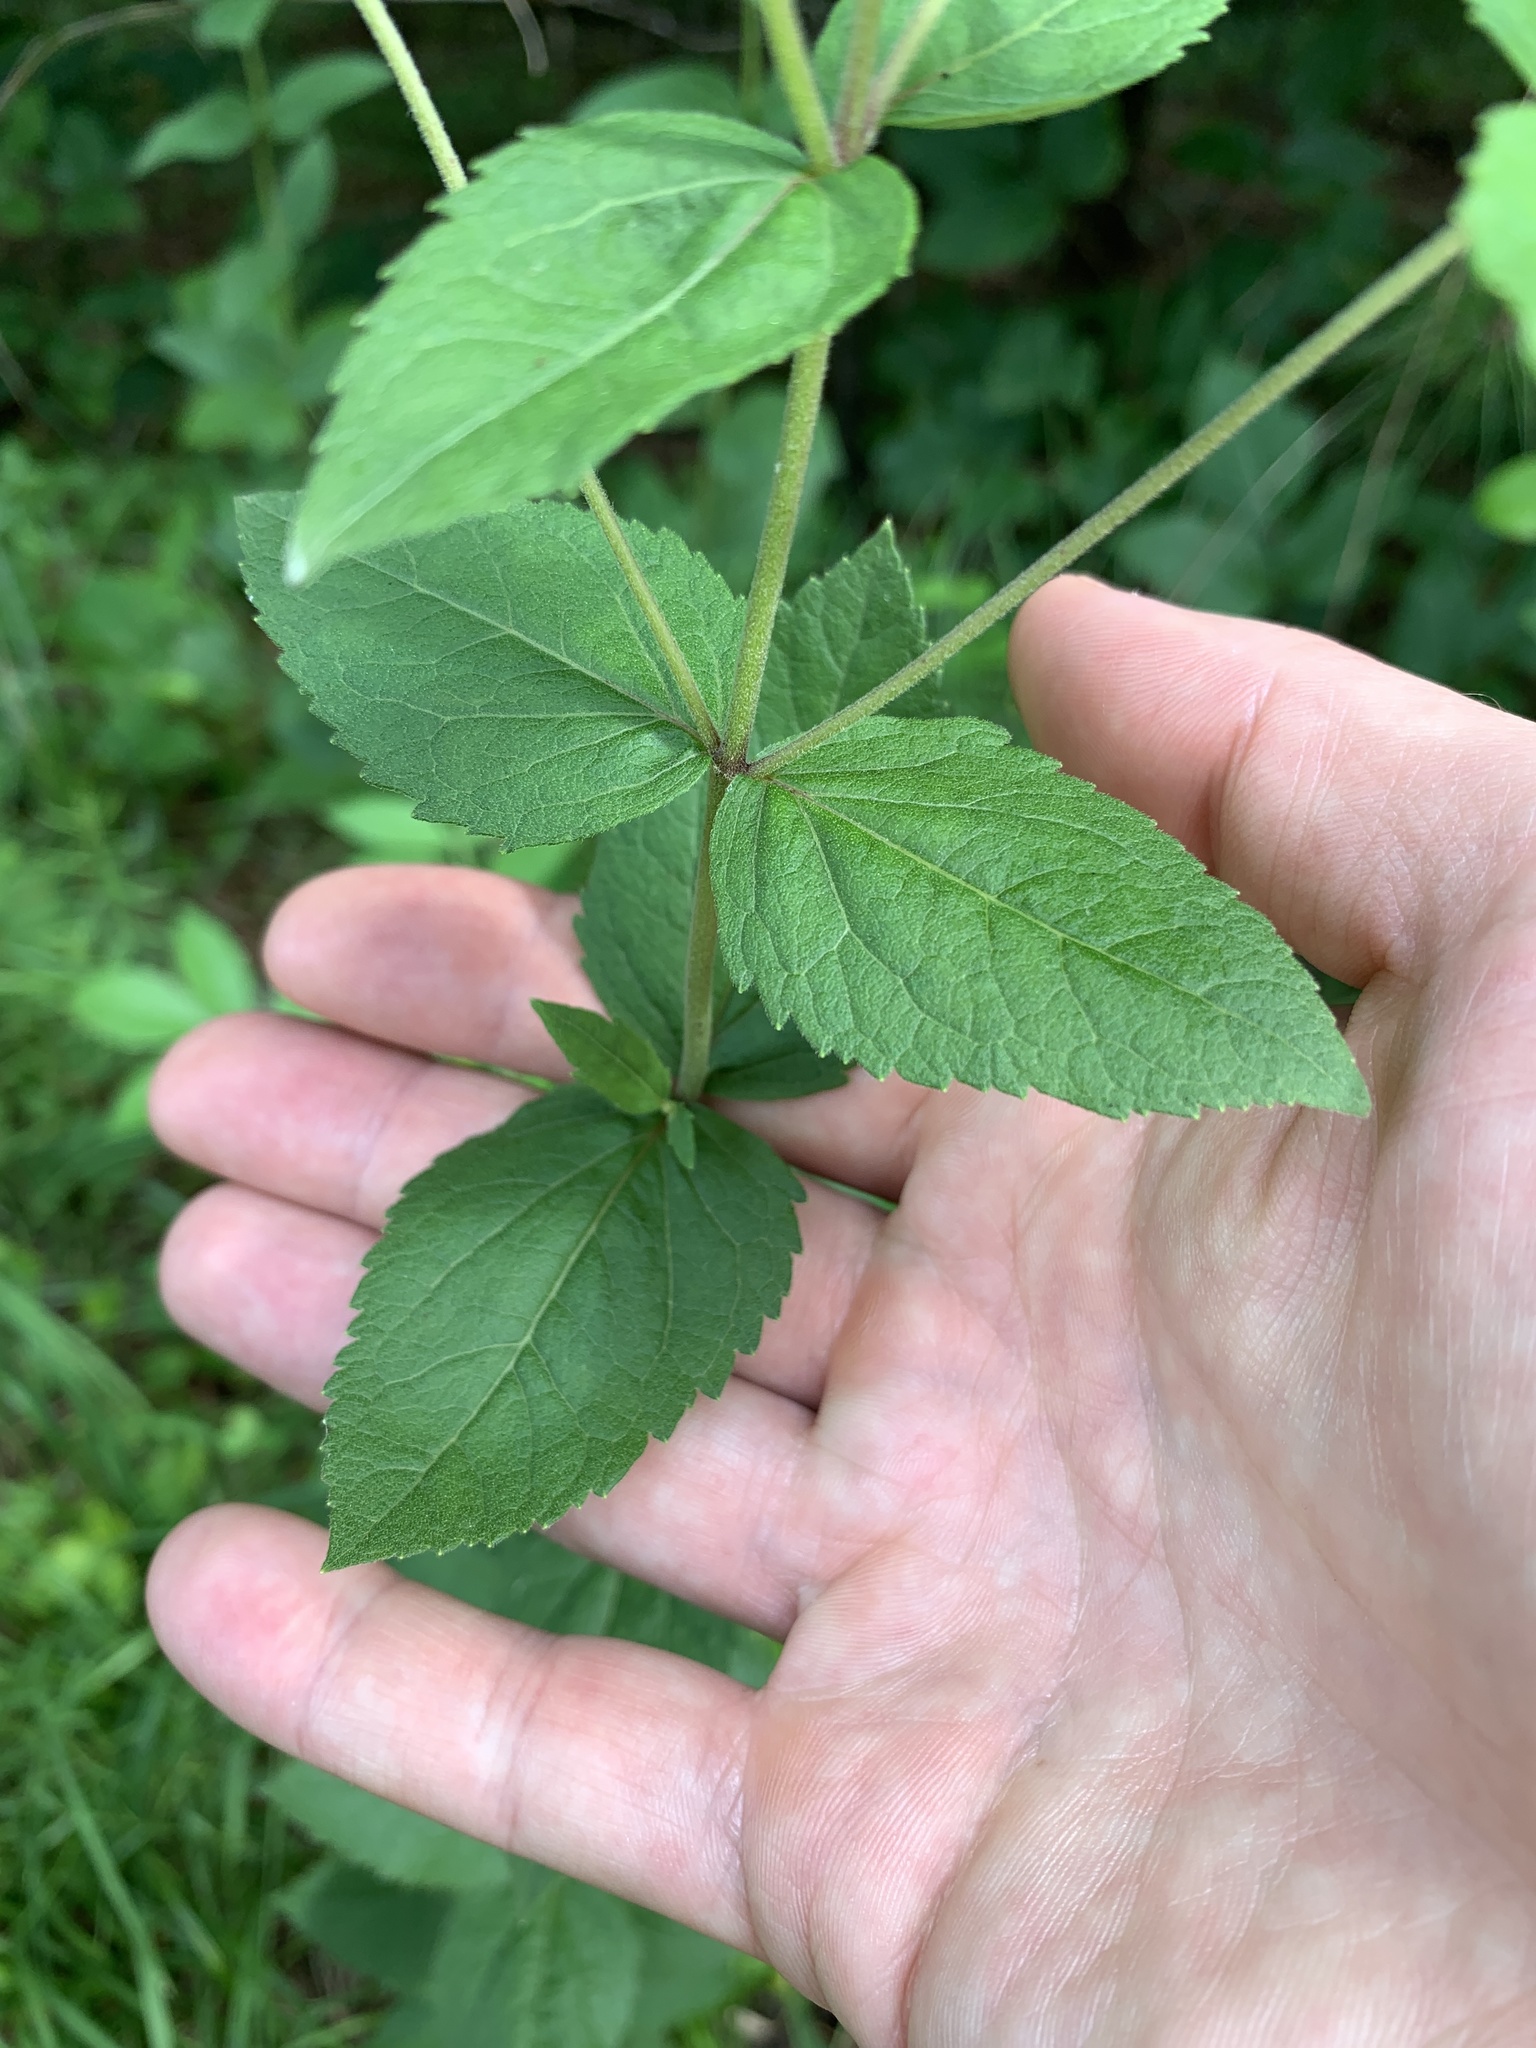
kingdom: Plantae
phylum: Tracheophyta
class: Magnoliopsida
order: Asterales
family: Asteraceae
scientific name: Asteraceae
